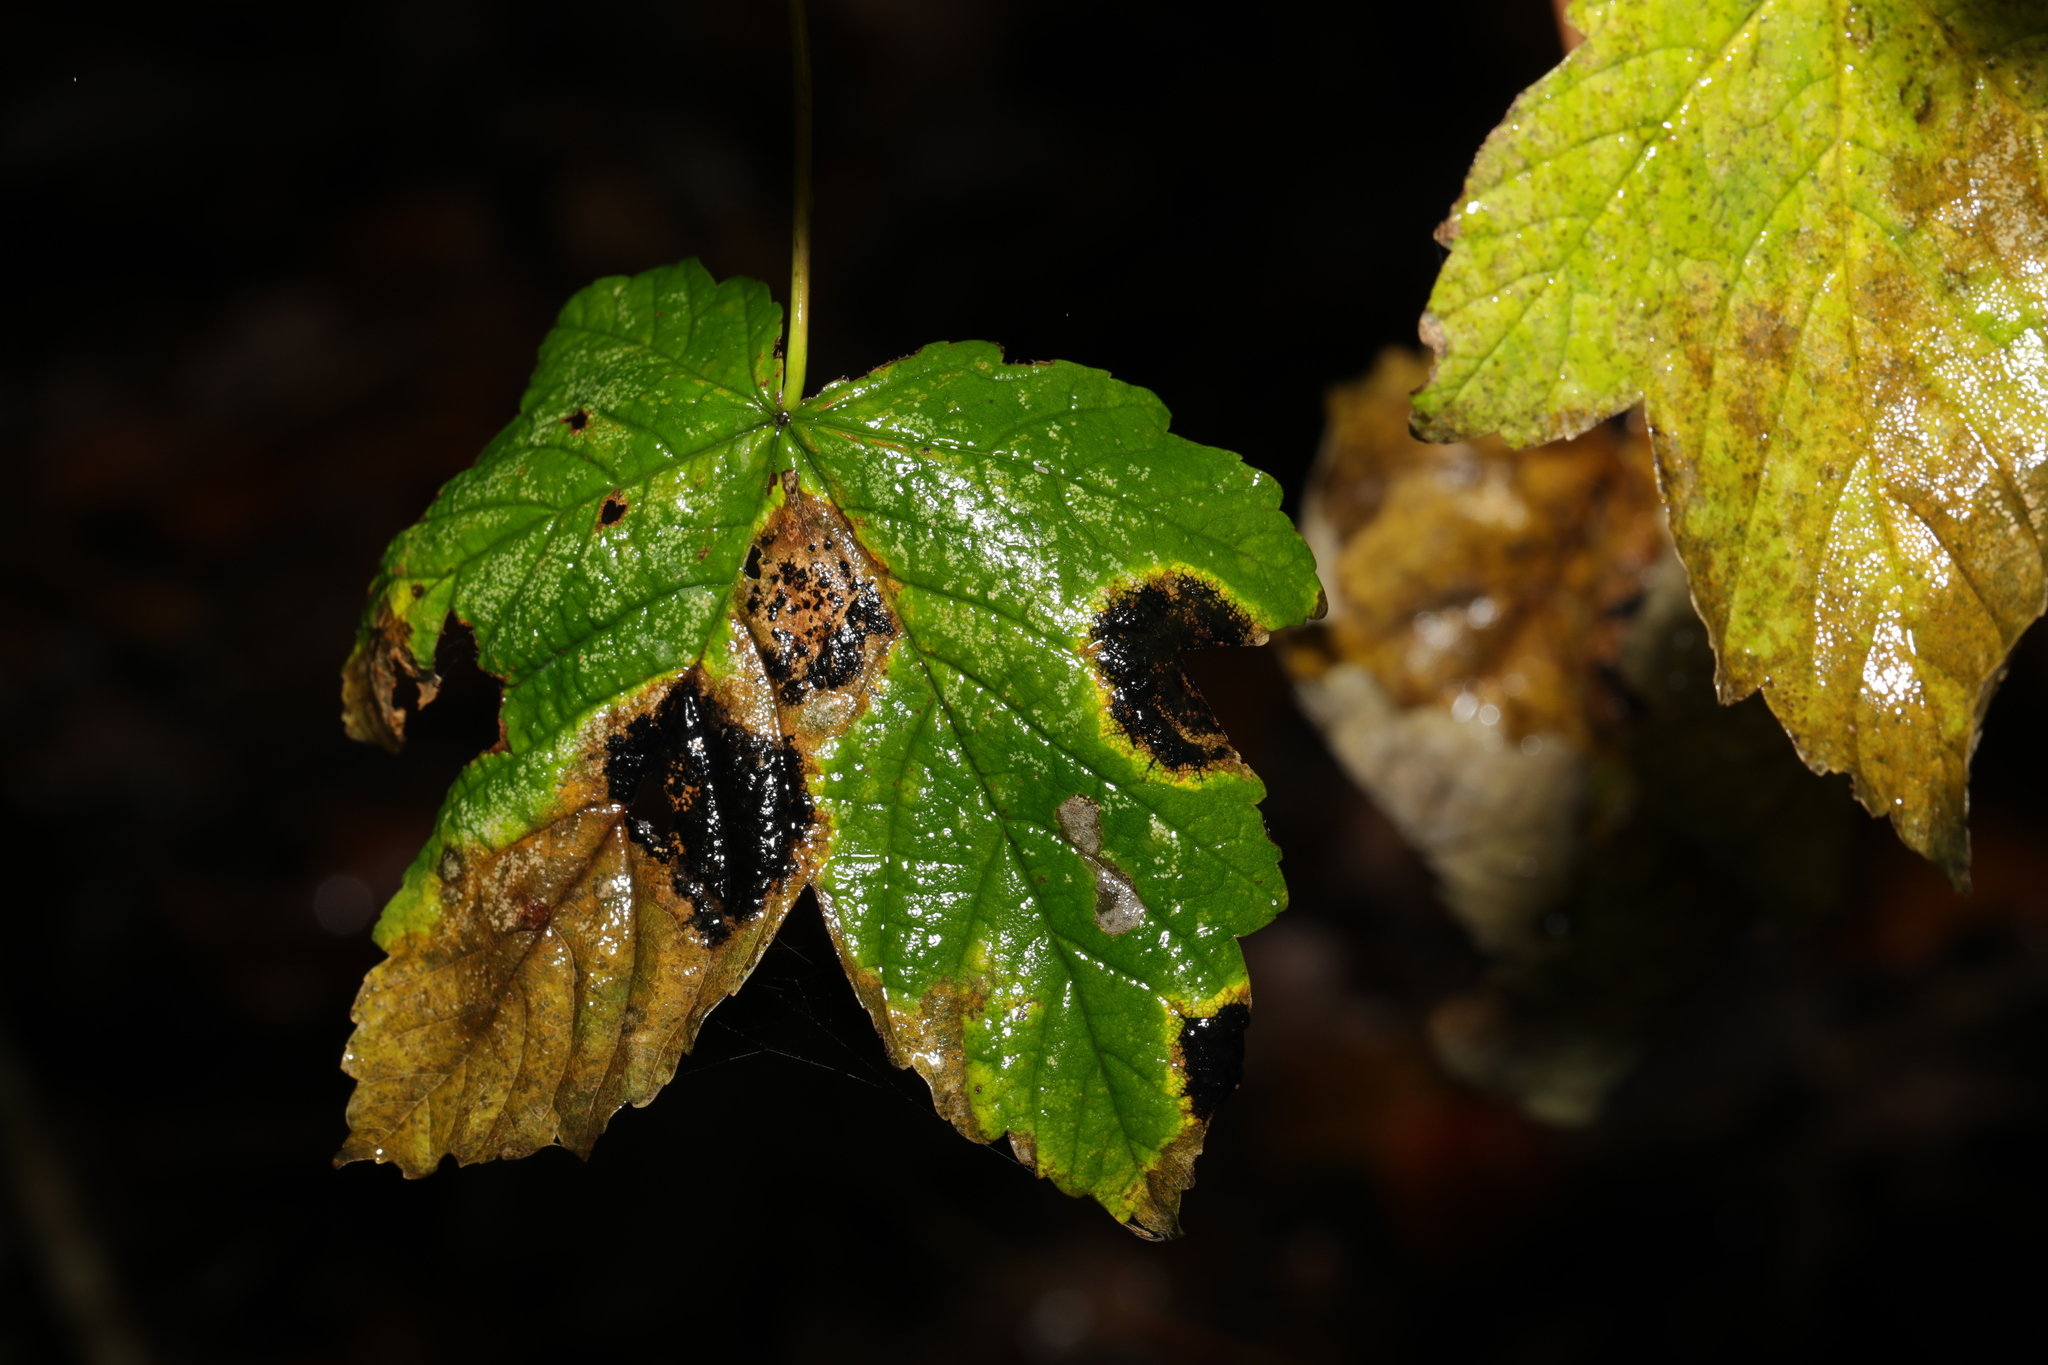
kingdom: Plantae
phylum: Tracheophyta
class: Magnoliopsida
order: Sapindales
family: Sapindaceae
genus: Acer
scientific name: Acer pseudoplatanus
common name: Sycamore
